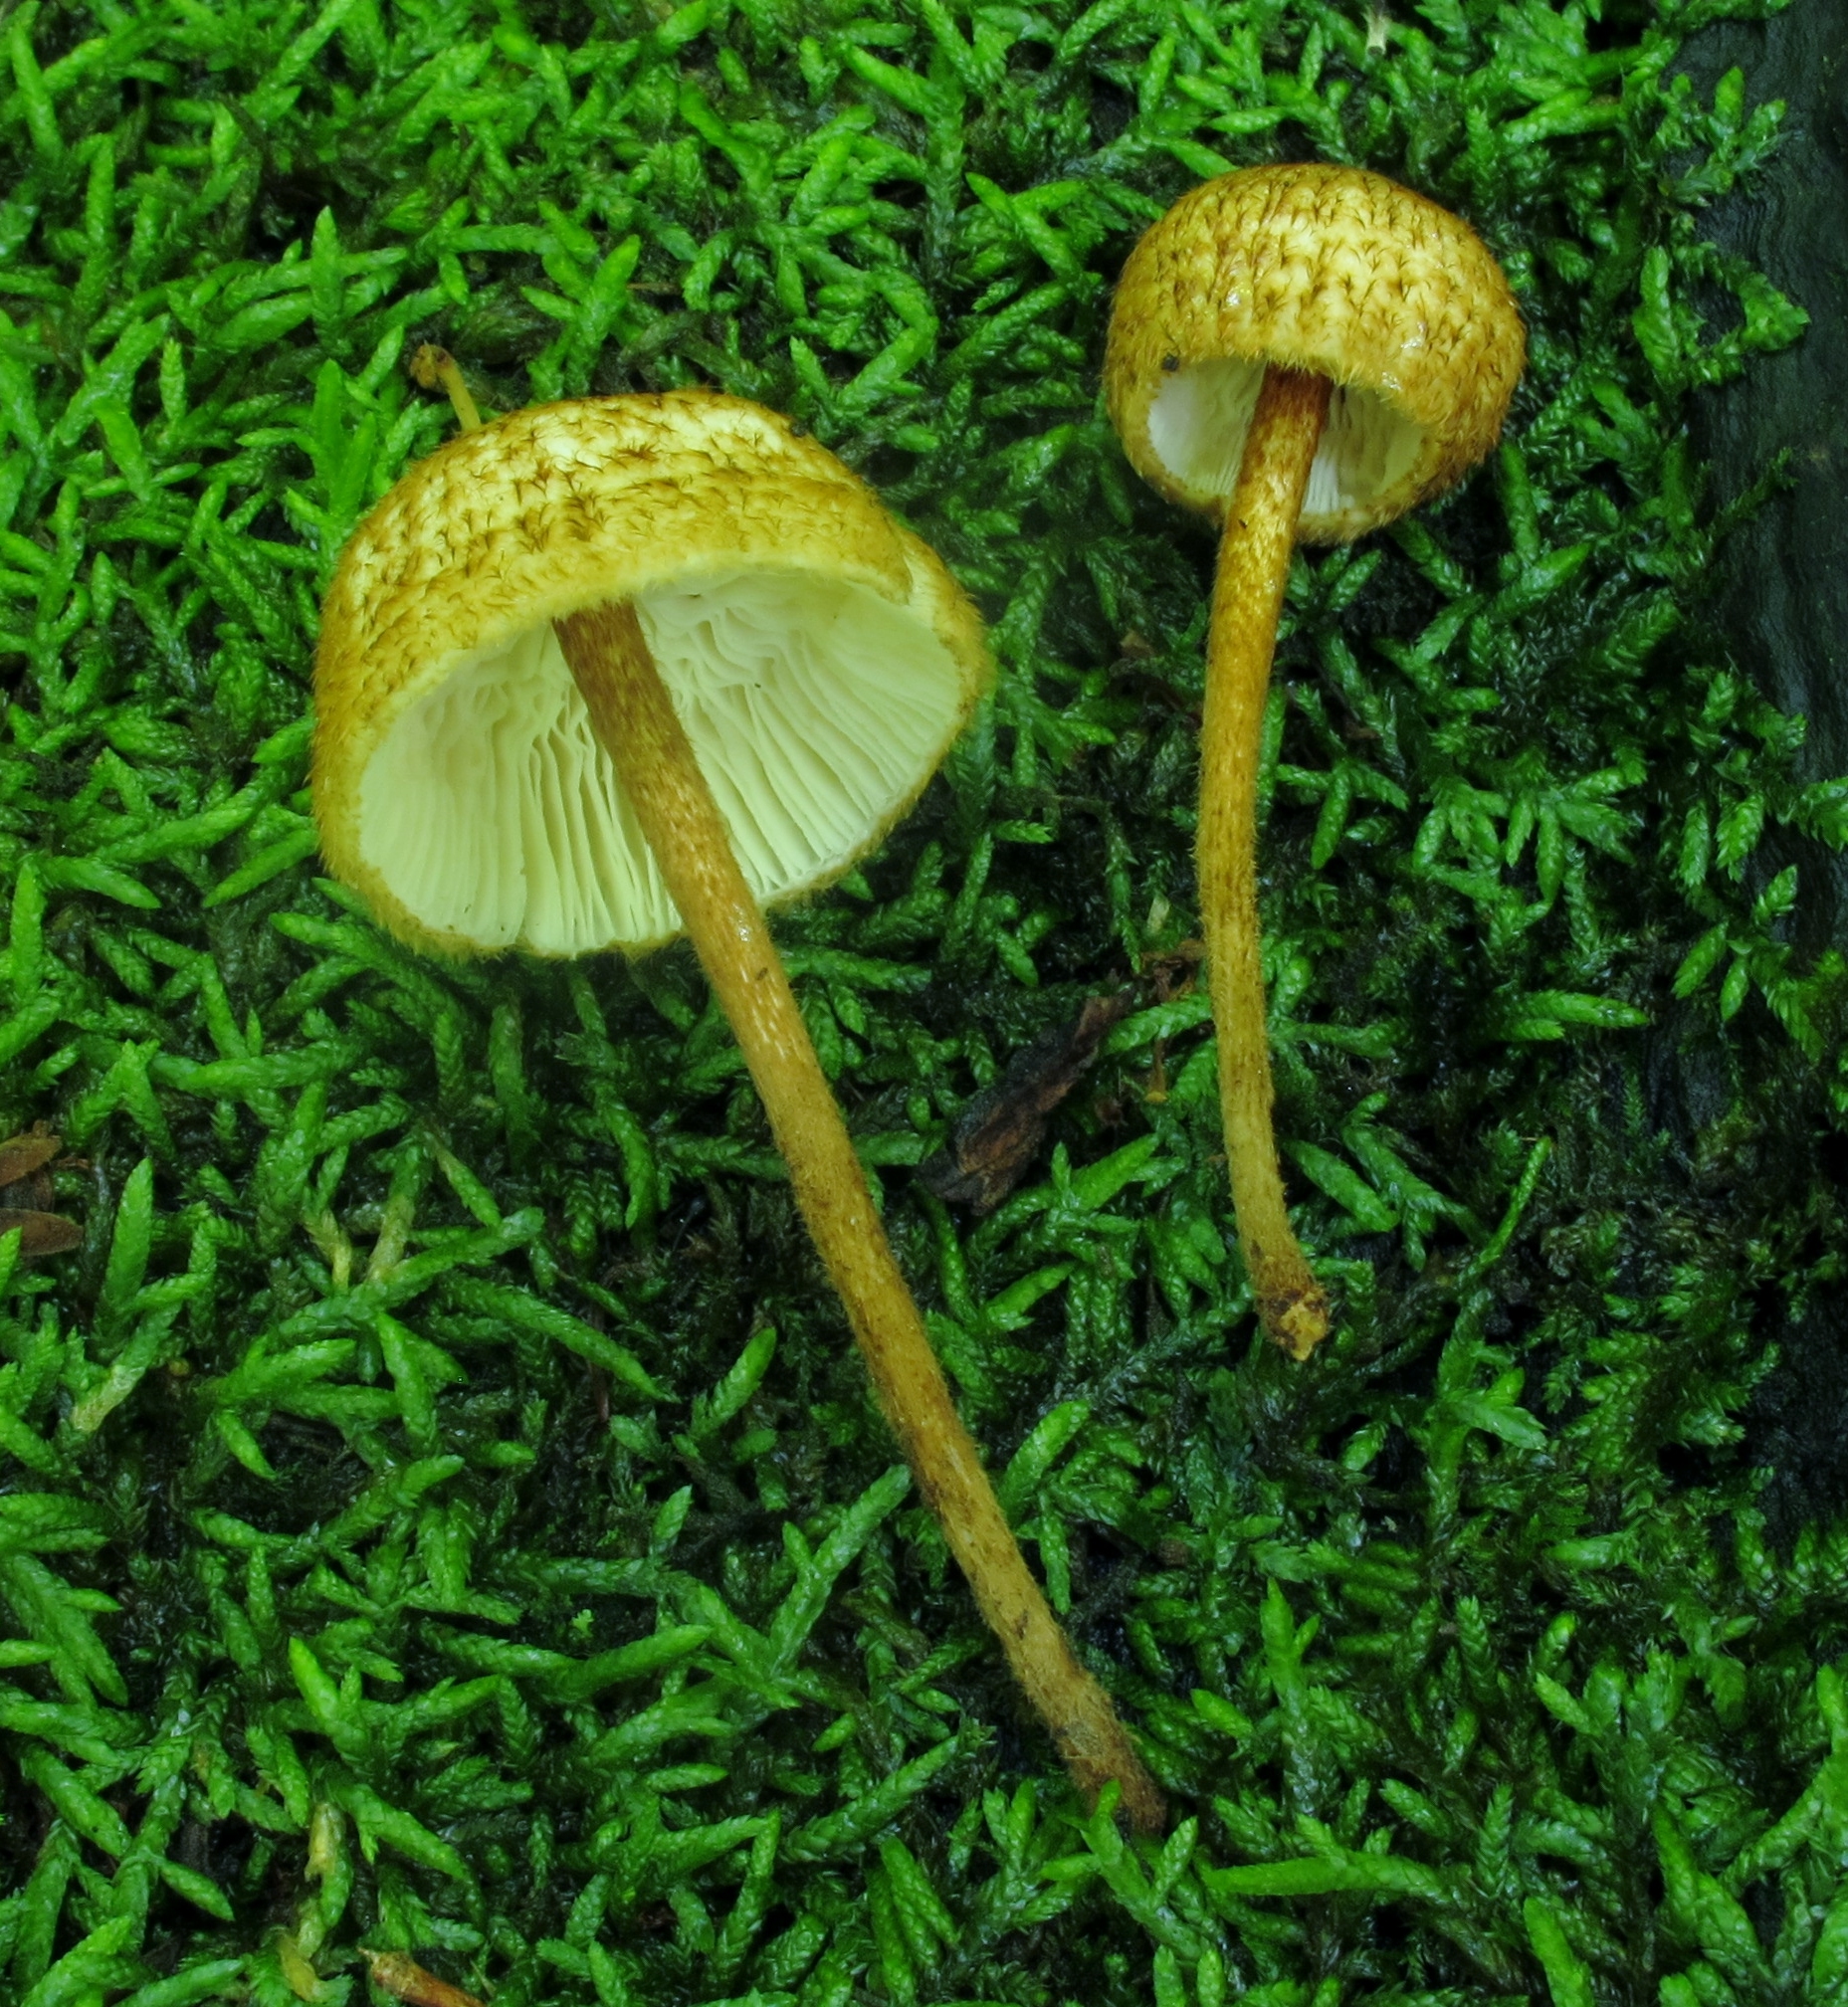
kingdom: Fungi
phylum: Basidiomycota
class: Agaricomycetes
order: Agaricales
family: Tricholomataceae
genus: Collybia
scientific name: Collybia zonata
